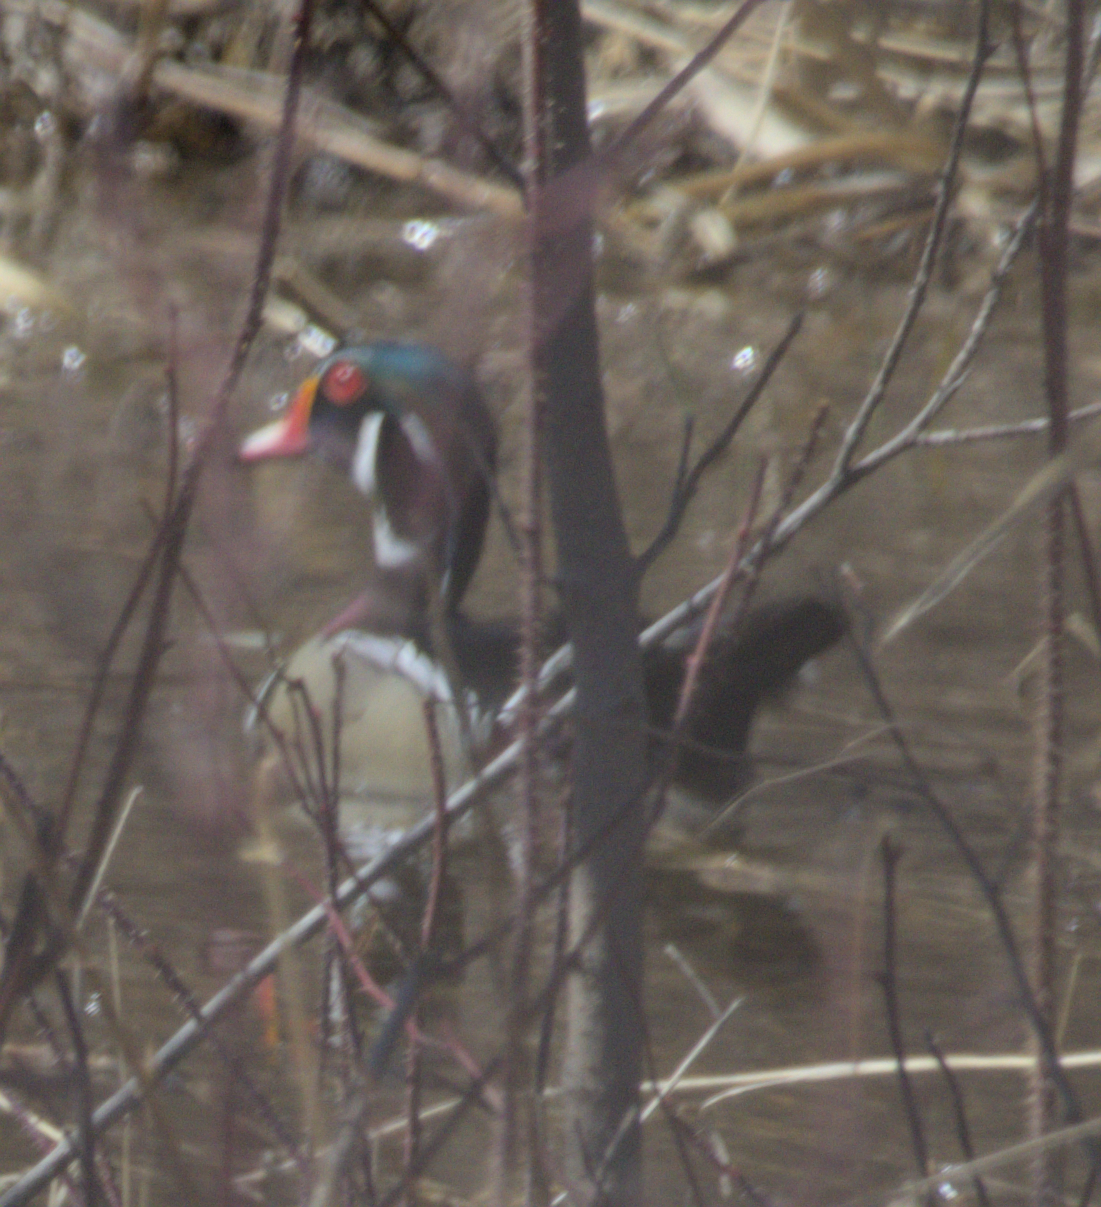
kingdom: Animalia
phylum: Chordata
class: Aves
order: Anseriformes
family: Anatidae
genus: Aix
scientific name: Aix sponsa
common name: Wood duck
